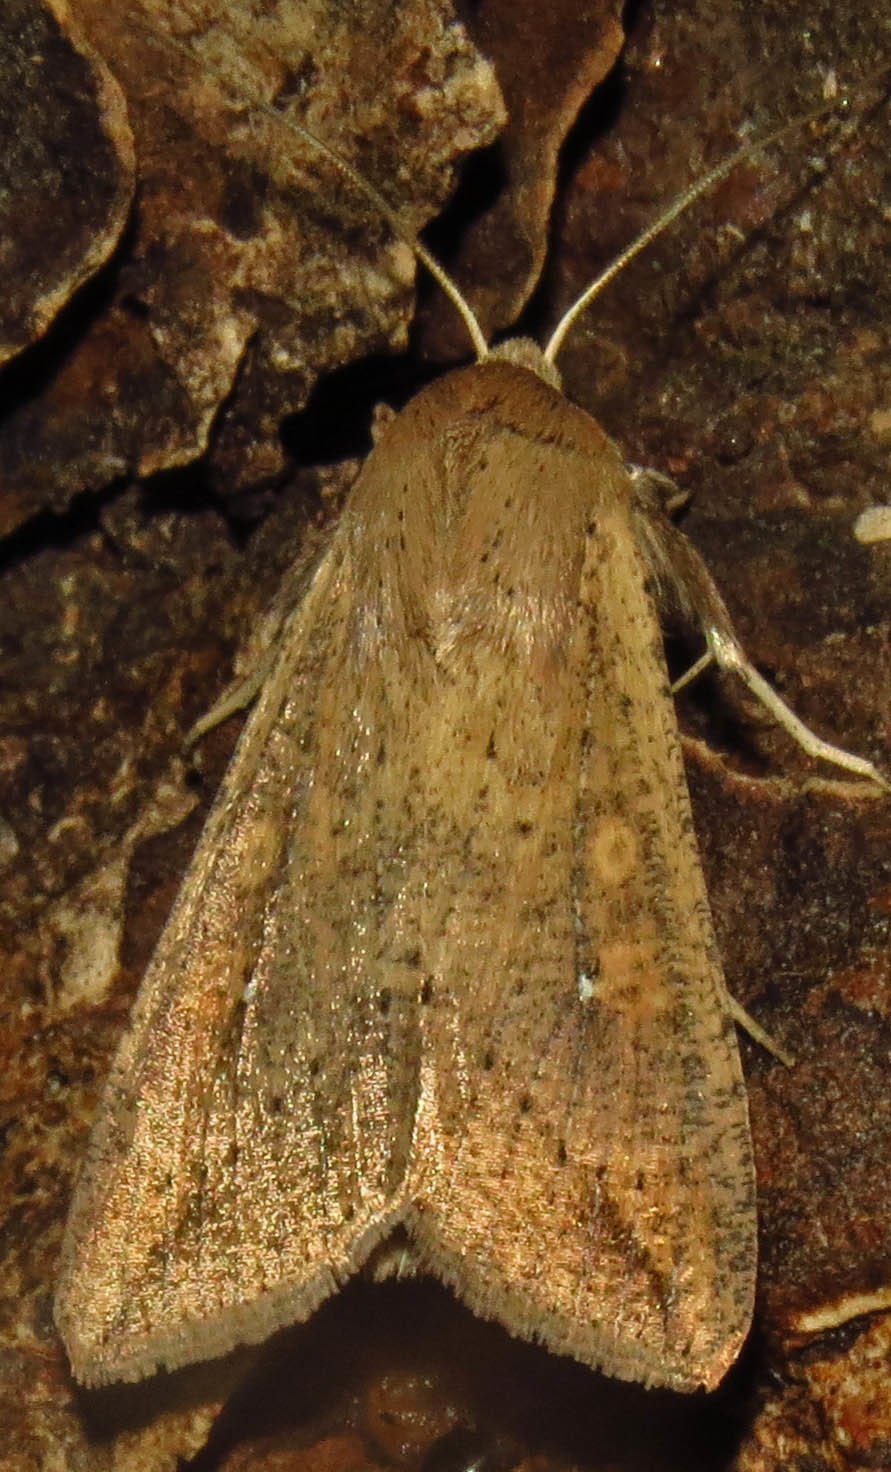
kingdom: Animalia
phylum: Arthropoda
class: Insecta
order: Lepidoptera
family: Noctuidae
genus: Mythimna
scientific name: Mythimna unipuncta
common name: White-speck
